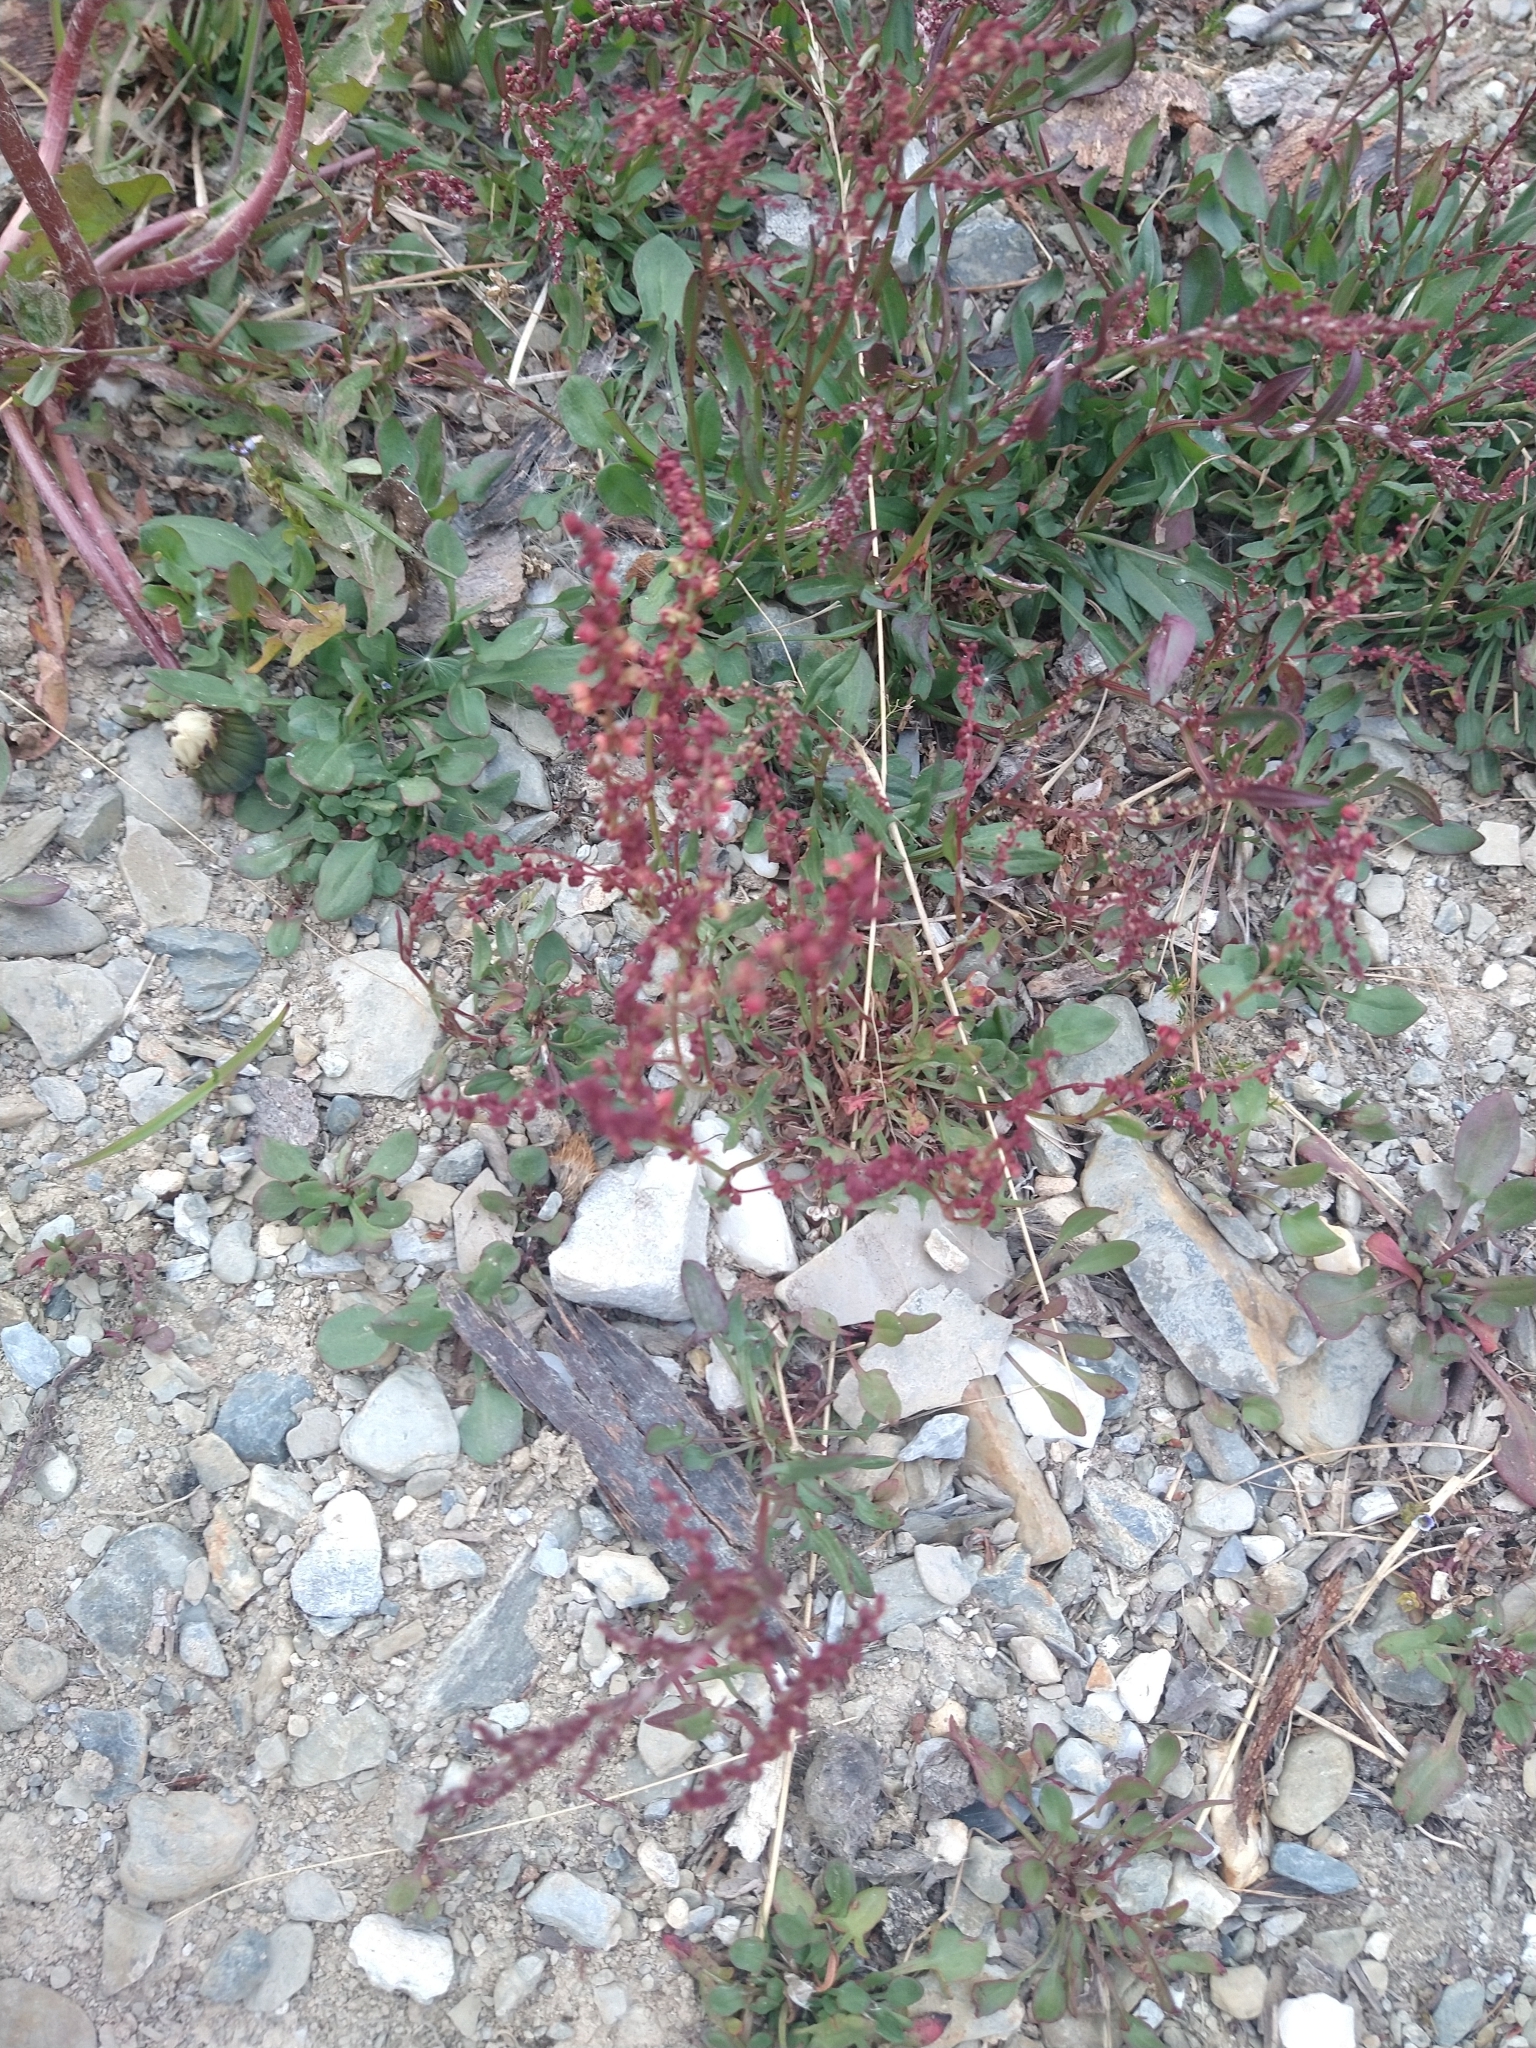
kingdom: Plantae
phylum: Tracheophyta
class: Magnoliopsida
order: Caryophyllales
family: Polygonaceae
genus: Rumex
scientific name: Rumex acetosella
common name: Common sheep sorrel
